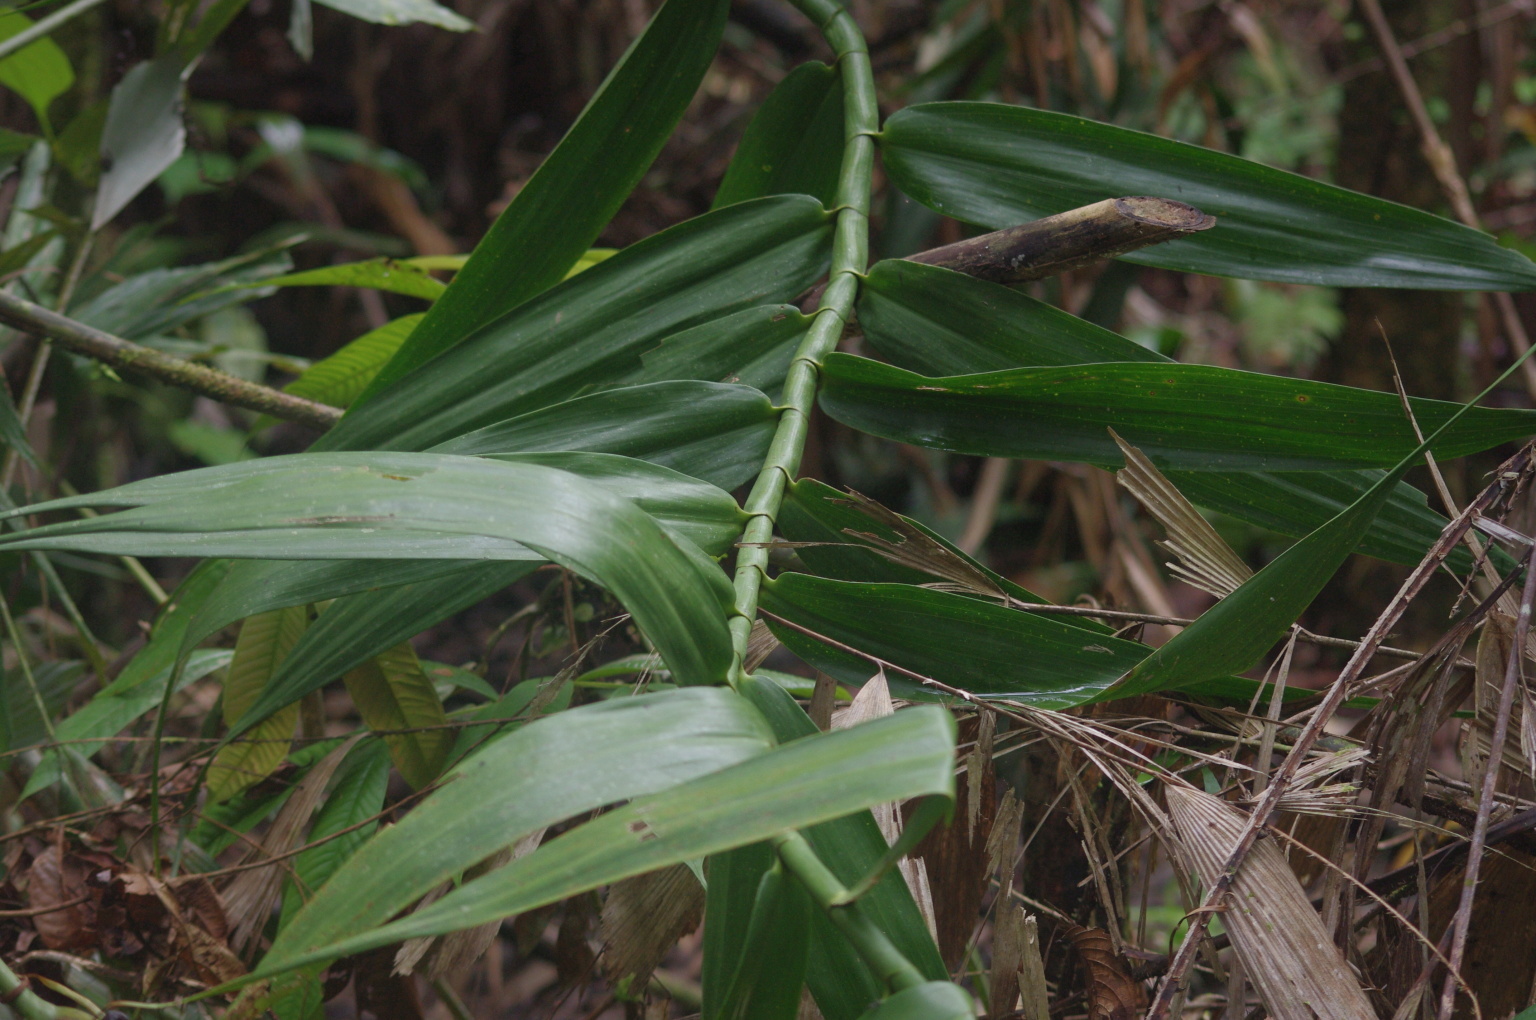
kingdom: Plantae
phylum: Tracheophyta
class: Liliopsida
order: Poales
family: Flagellariaceae
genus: Flagellaria
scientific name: Flagellaria indica
